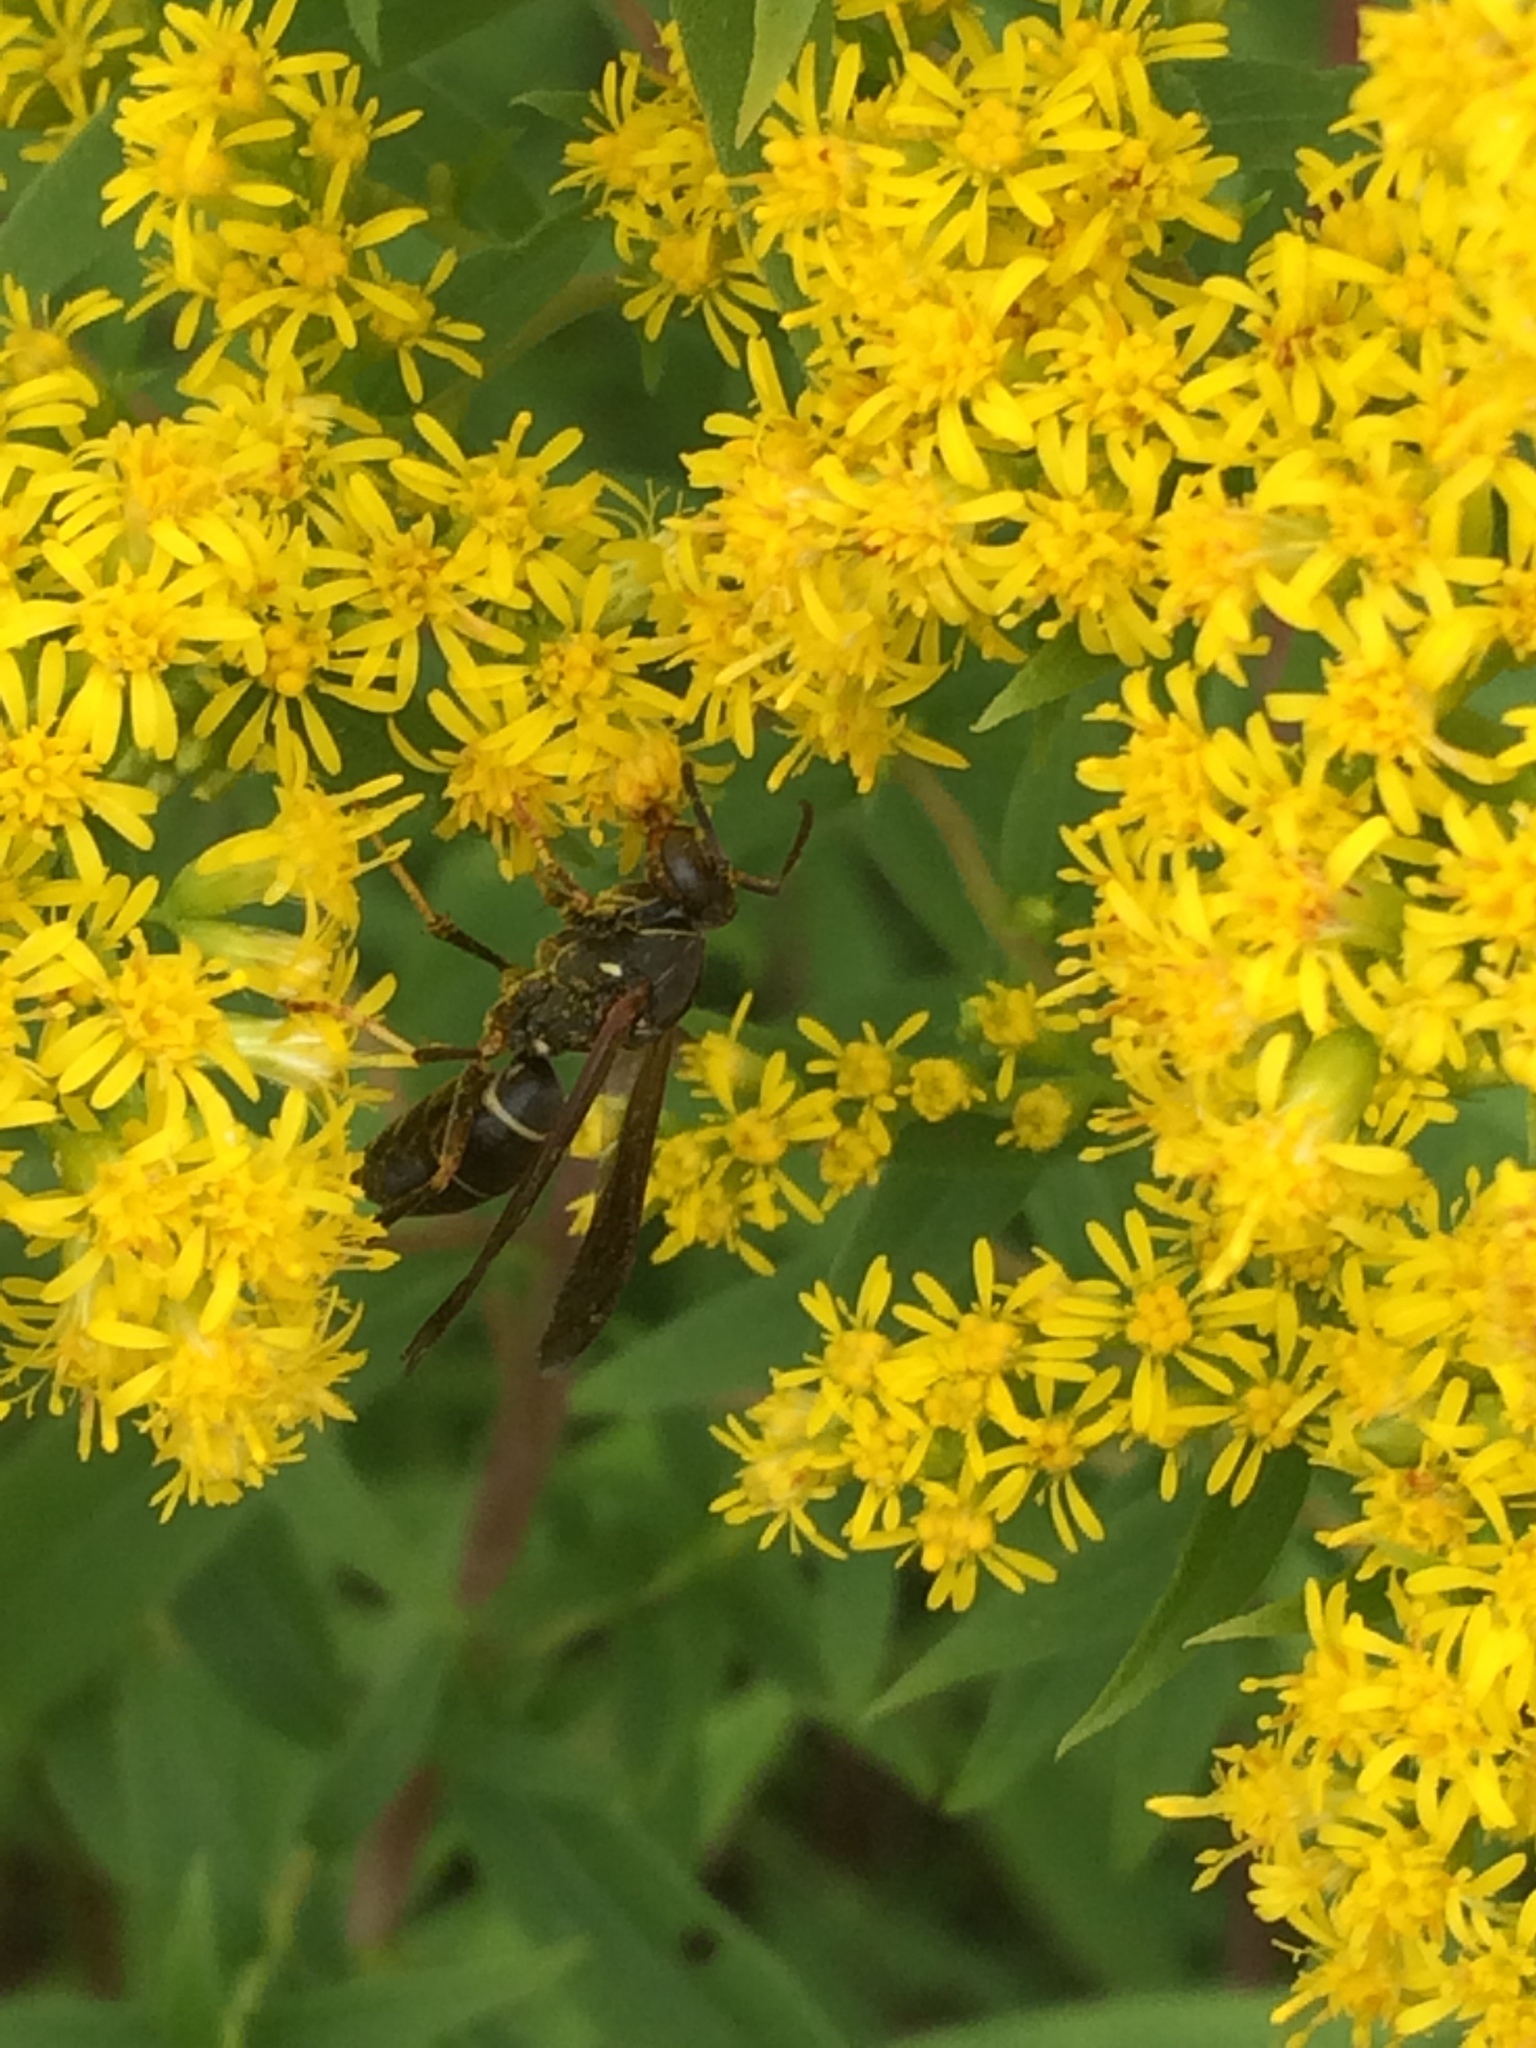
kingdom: Animalia
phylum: Arthropoda
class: Insecta
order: Hymenoptera
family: Eumenidae
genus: Polistes
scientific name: Polistes fuscatus
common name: Dark paper wasp
